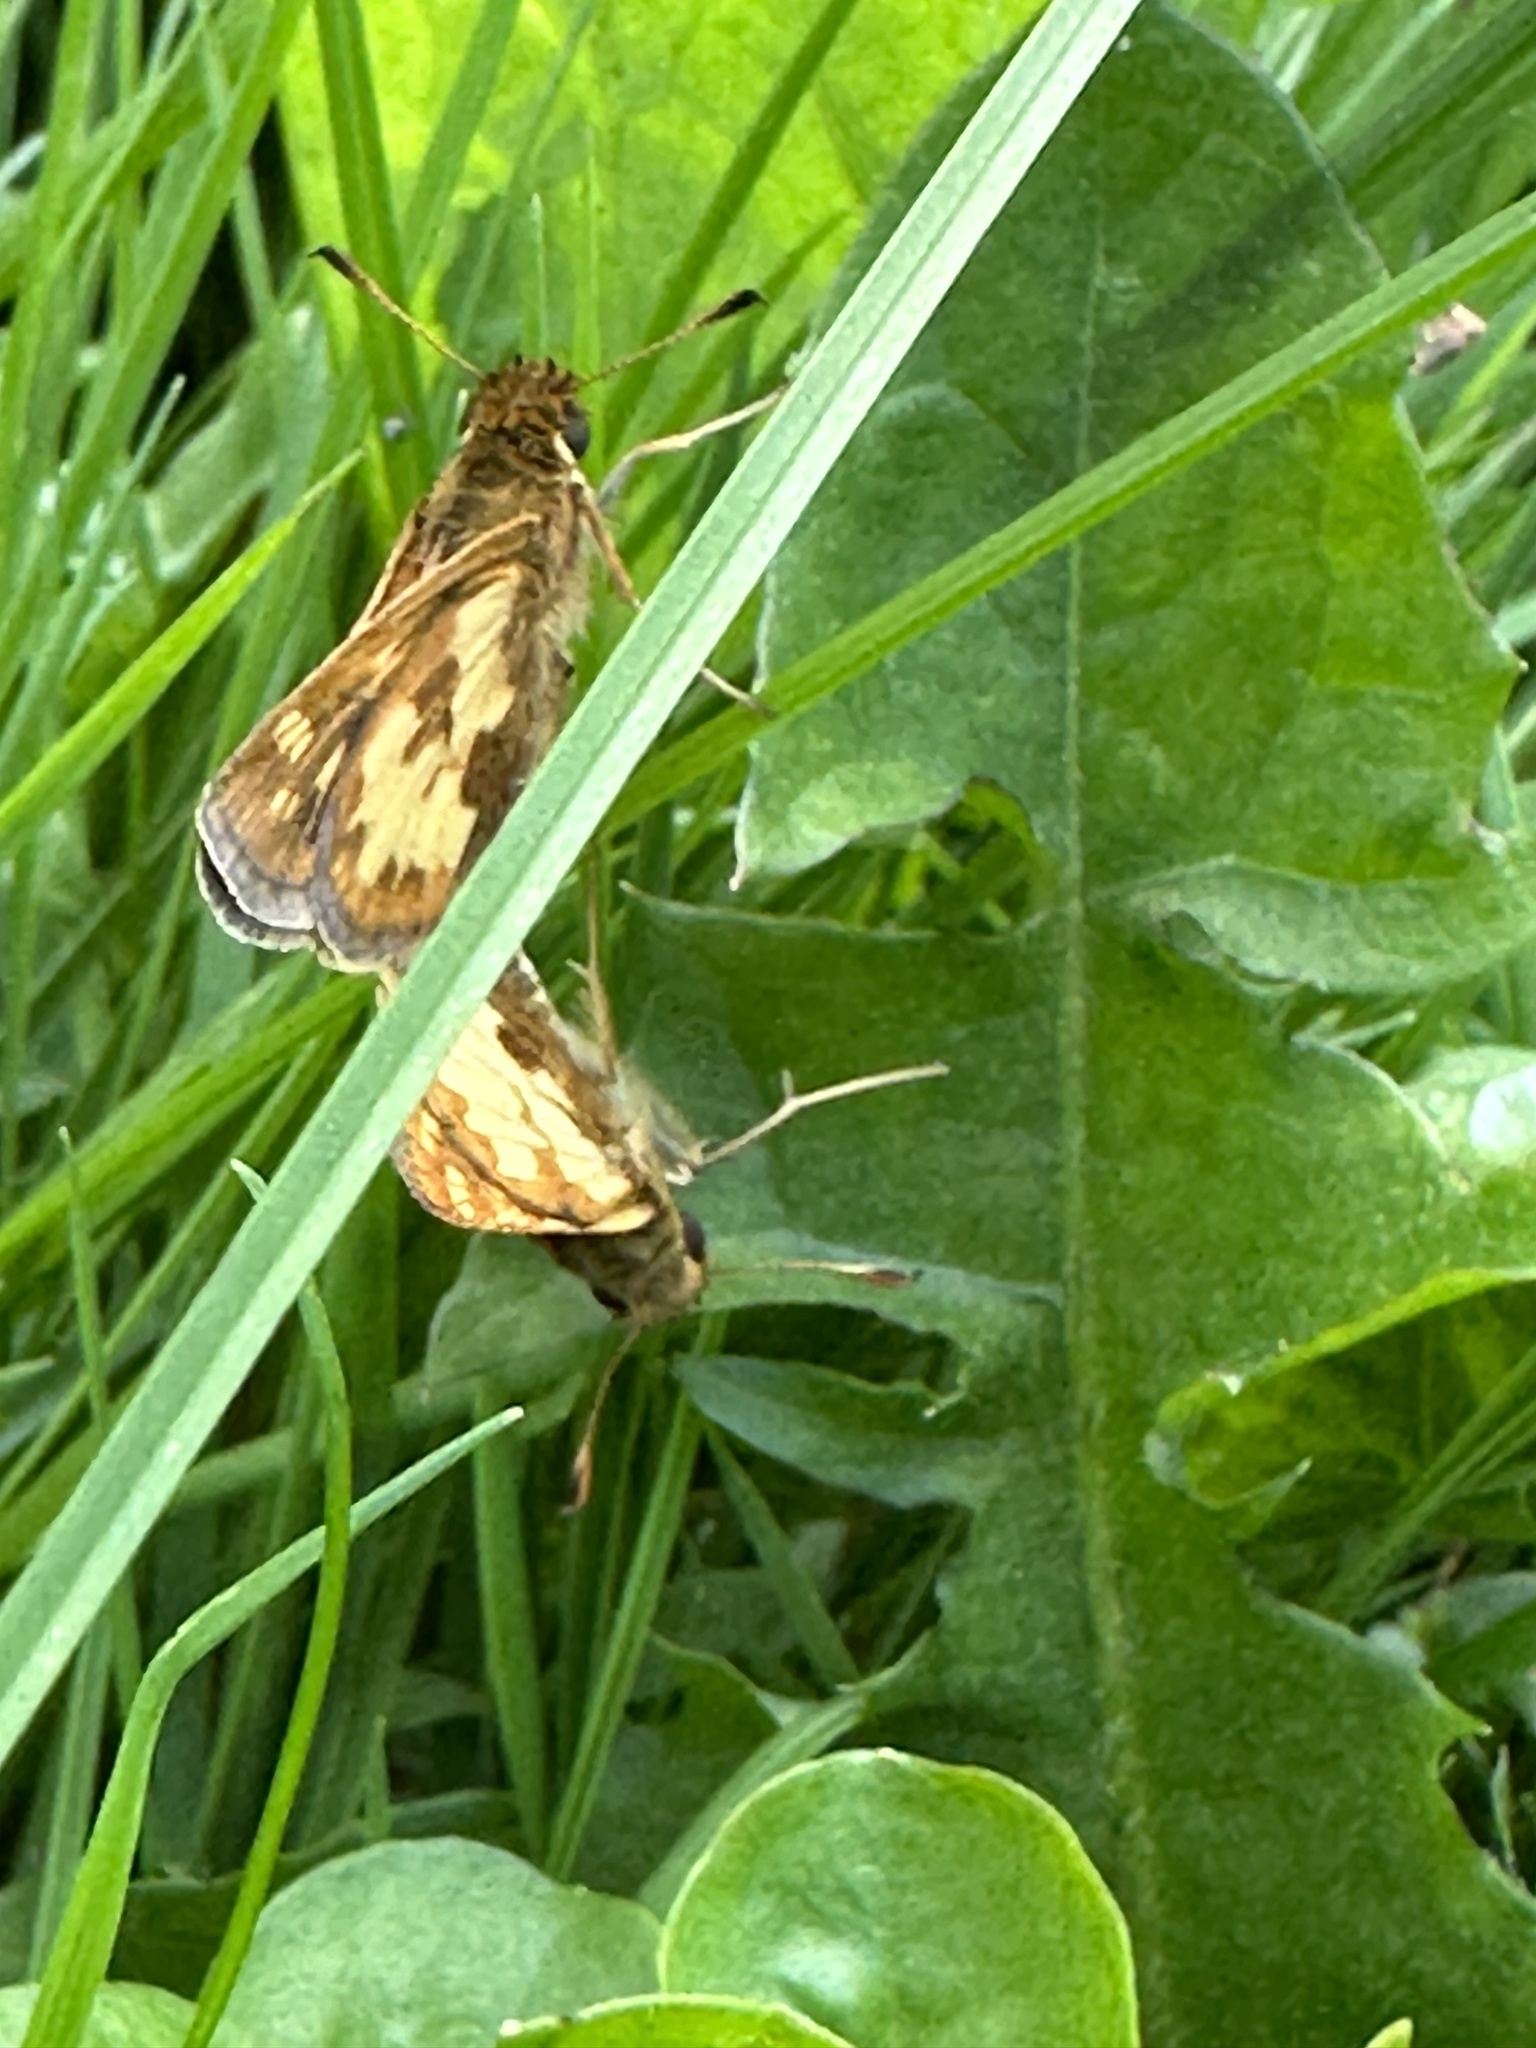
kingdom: Animalia
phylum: Arthropoda
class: Insecta
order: Lepidoptera
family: Hesperiidae
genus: Polites
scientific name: Polites coras
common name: Peck's skipper
